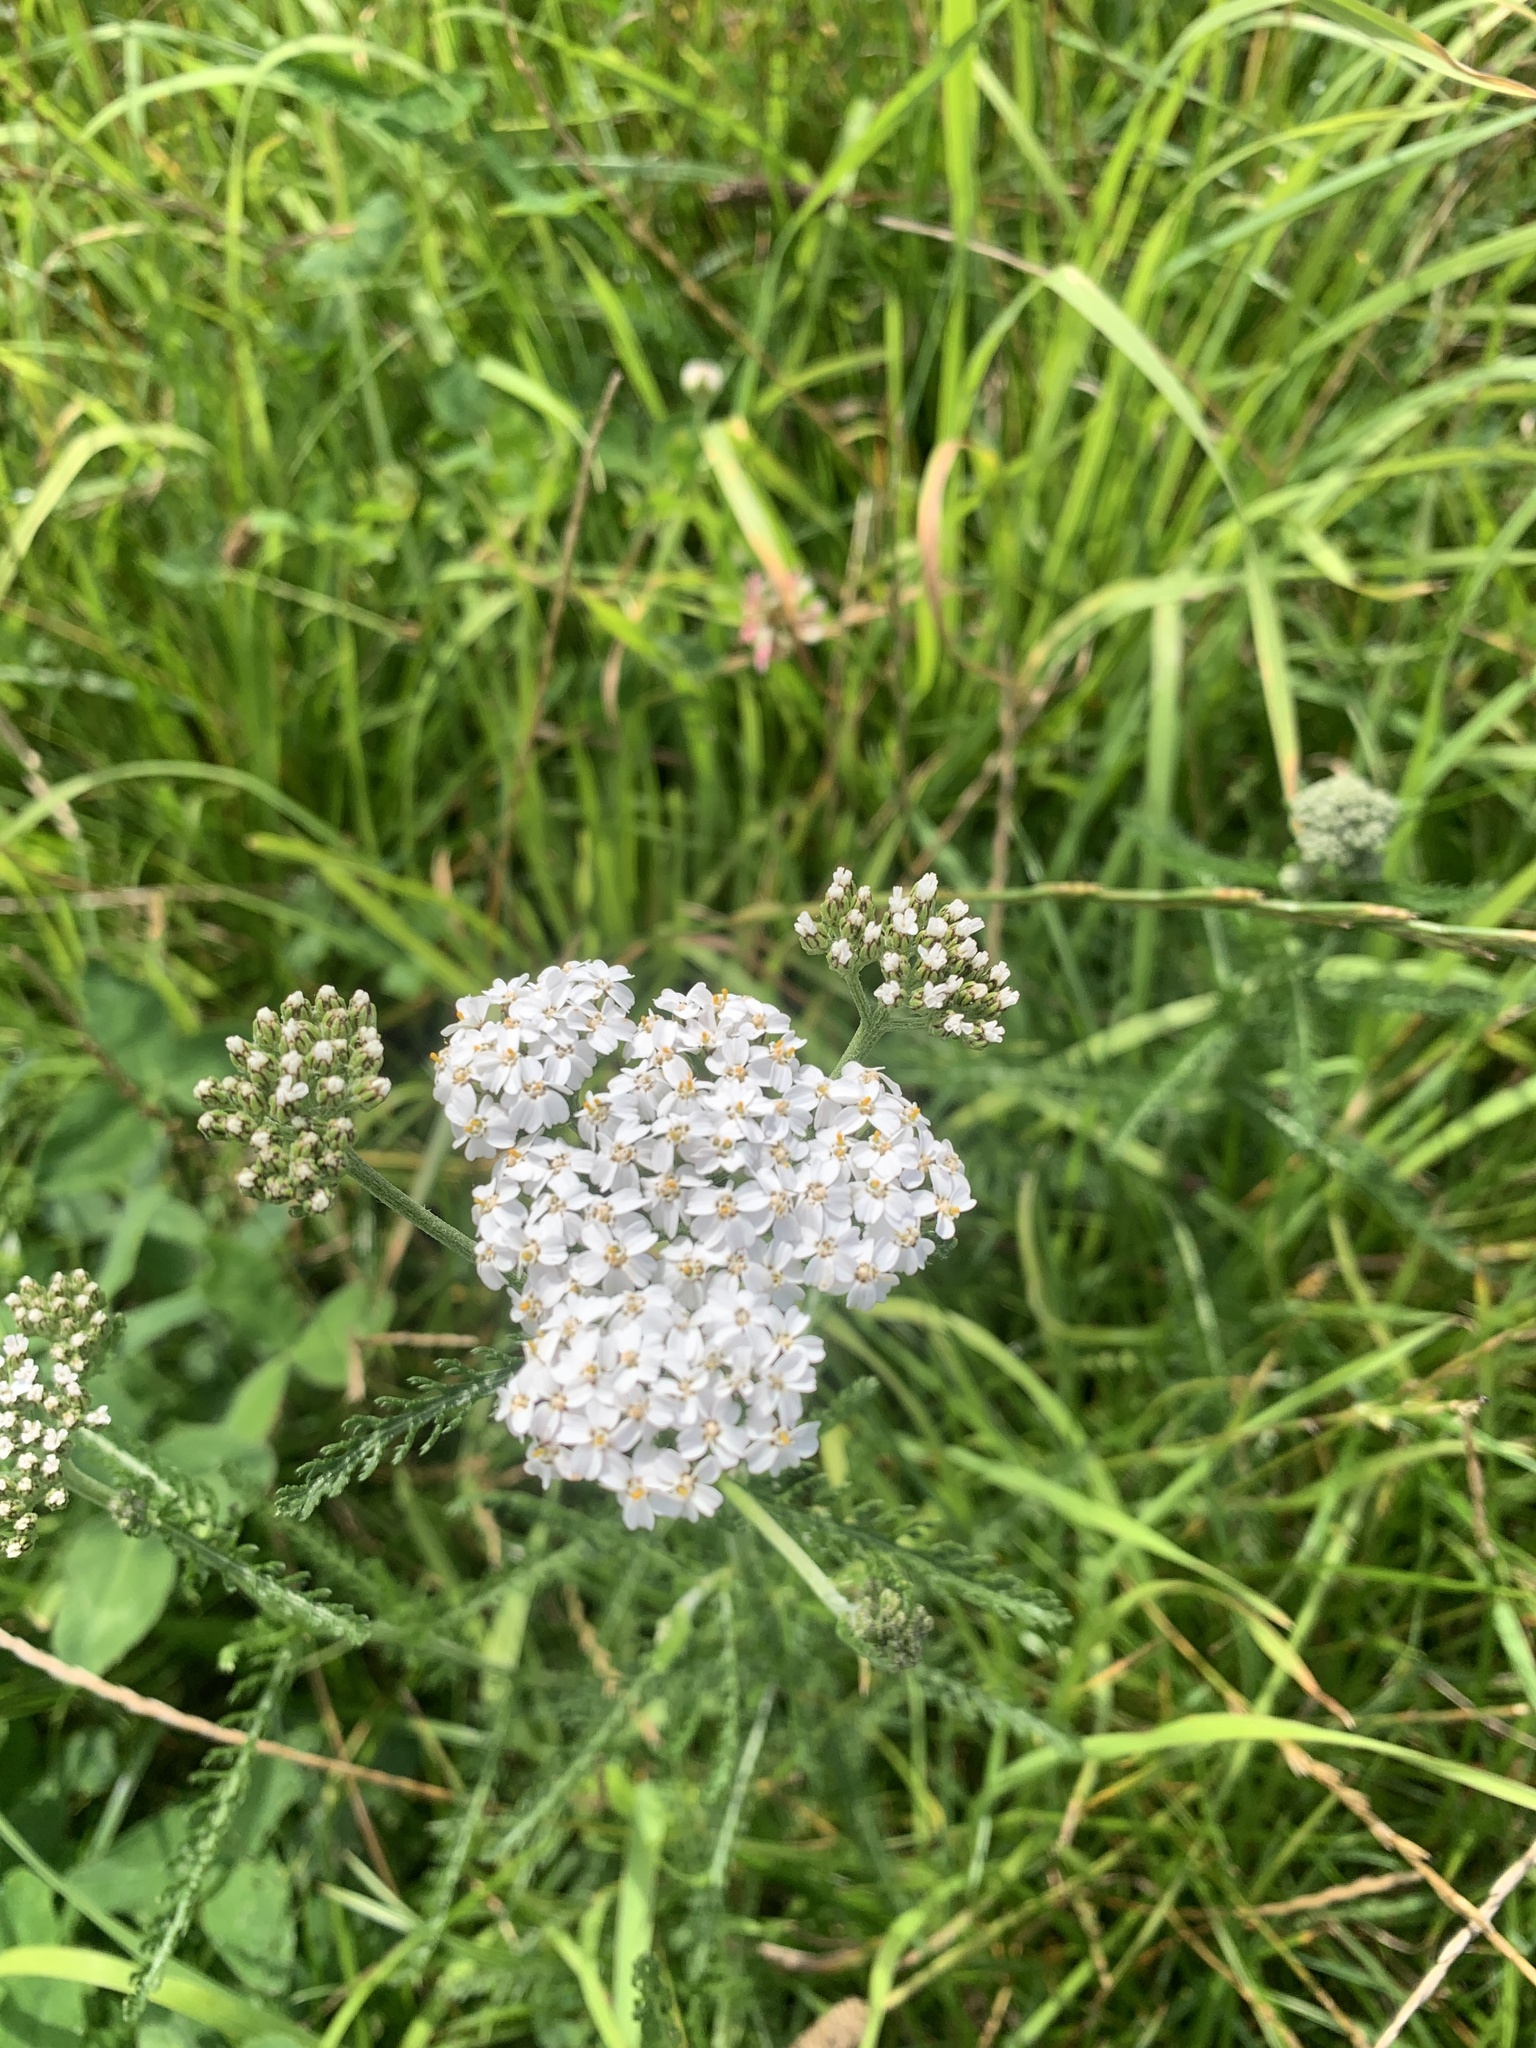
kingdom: Plantae
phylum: Tracheophyta
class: Magnoliopsida
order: Asterales
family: Asteraceae
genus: Achillea
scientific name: Achillea millefolium
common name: Yarrow
